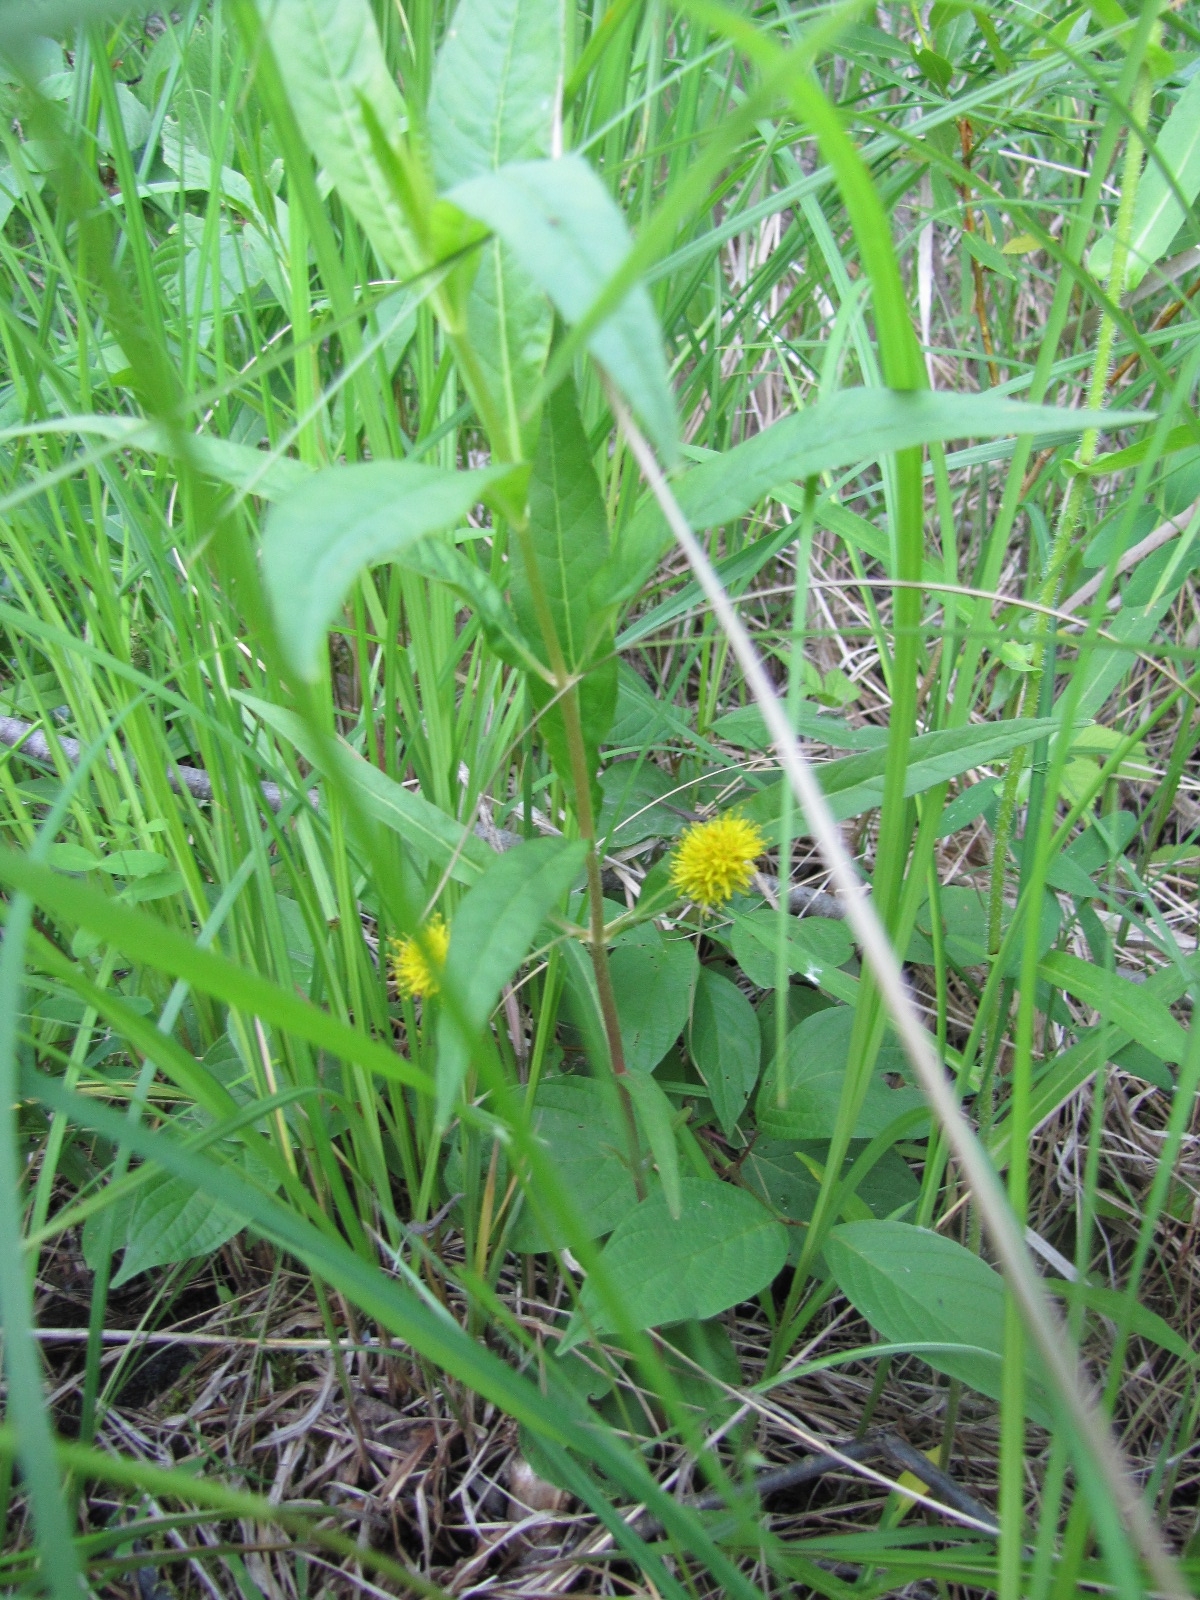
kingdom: Plantae
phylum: Tracheophyta
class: Magnoliopsida
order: Ericales
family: Primulaceae
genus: Lysimachia
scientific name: Lysimachia thyrsiflora
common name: Tufted loosestrife
